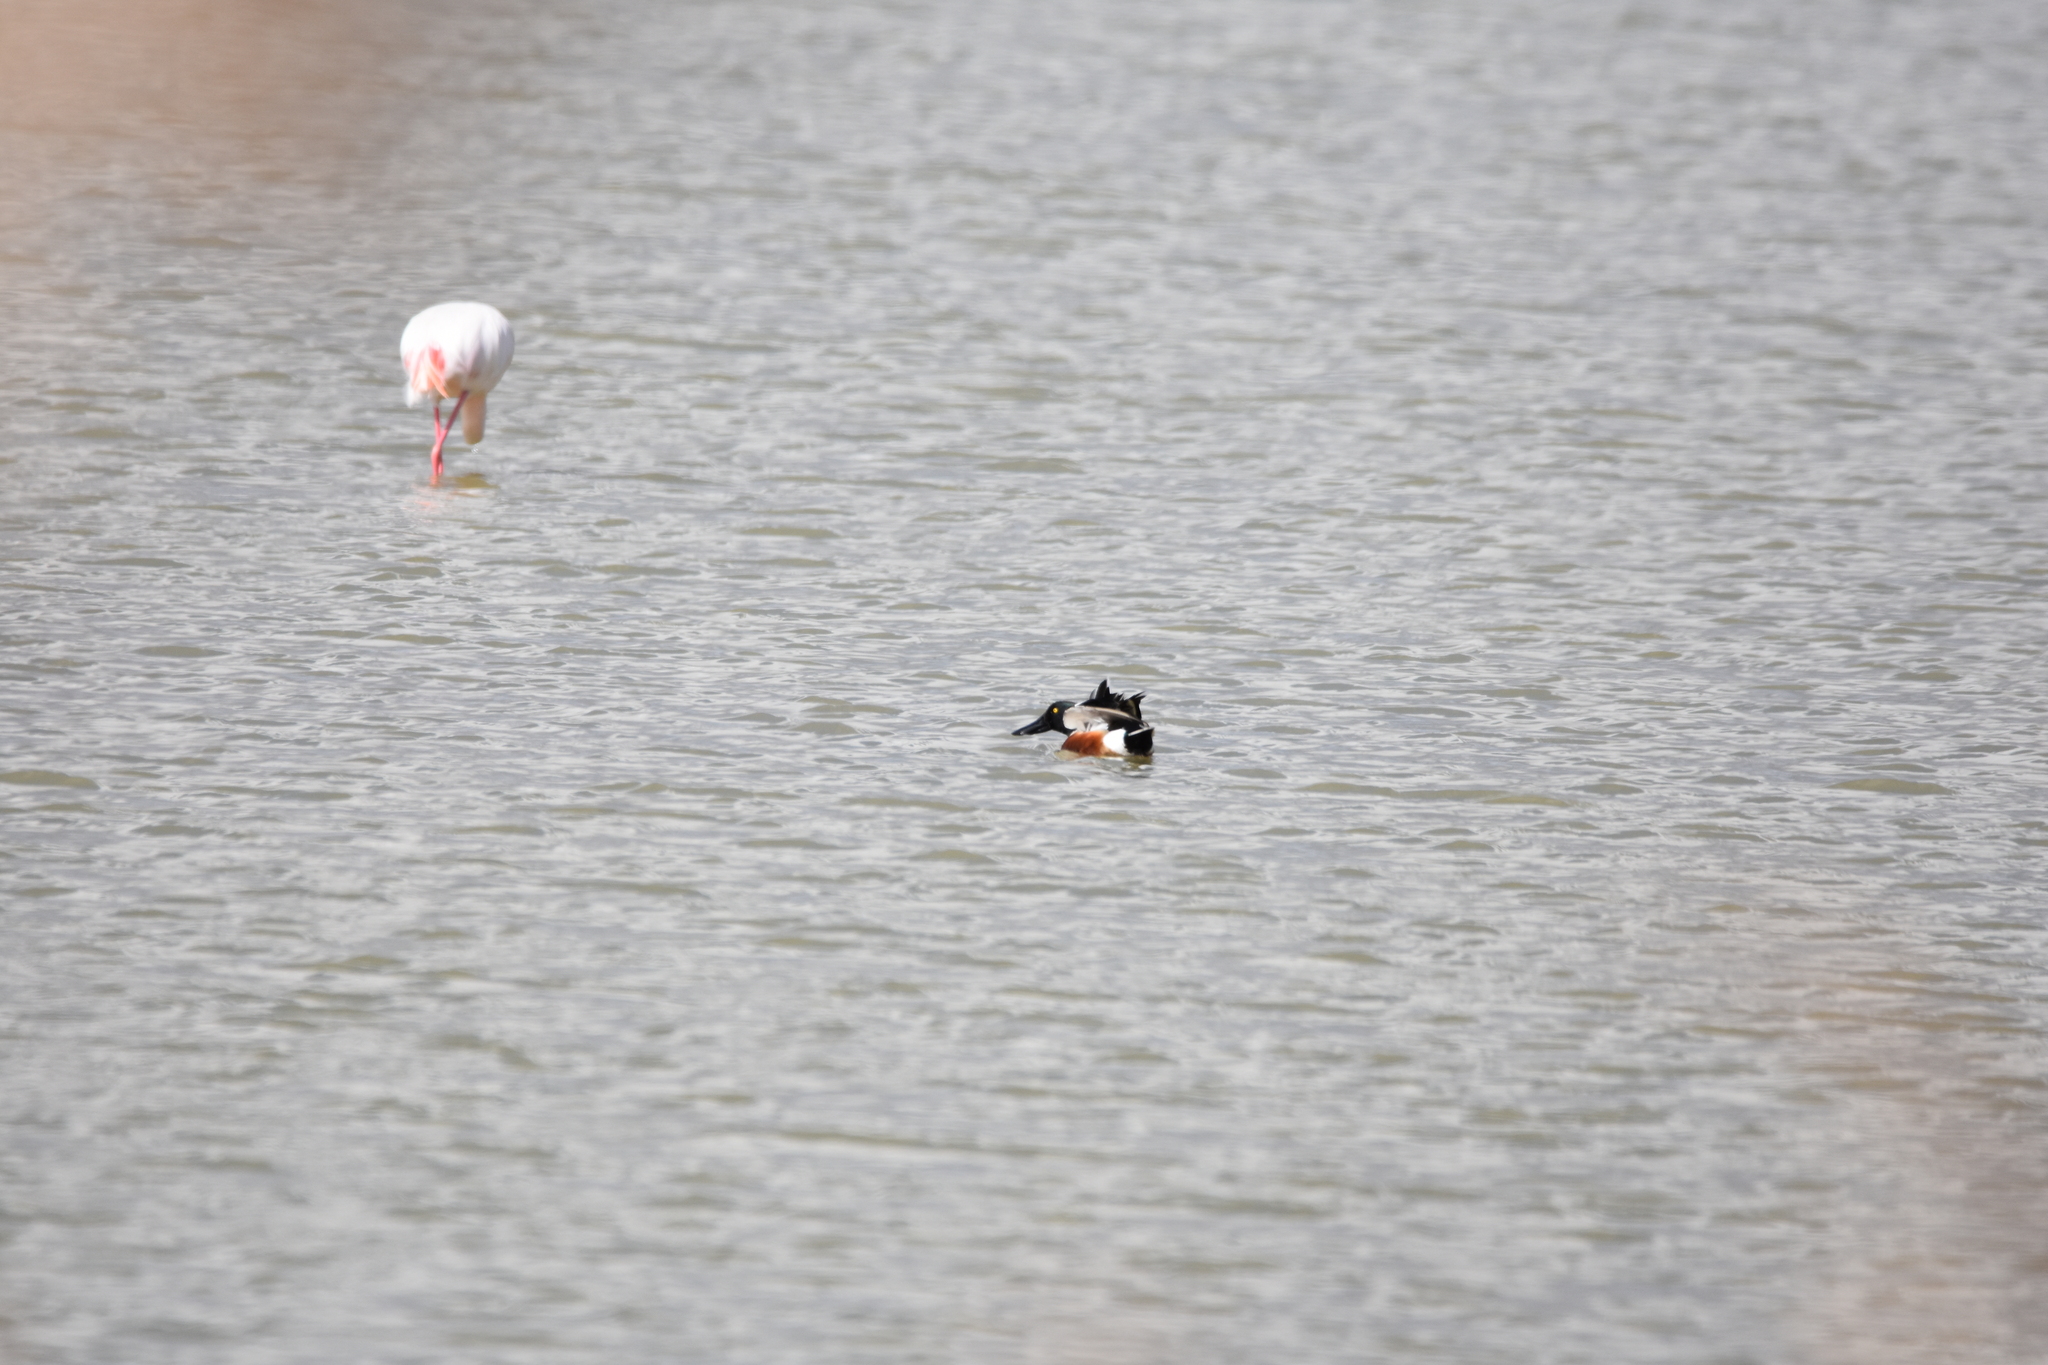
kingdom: Animalia
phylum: Chordata
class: Aves
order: Anseriformes
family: Anatidae
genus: Spatula
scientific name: Spatula clypeata
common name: Northern shoveler
